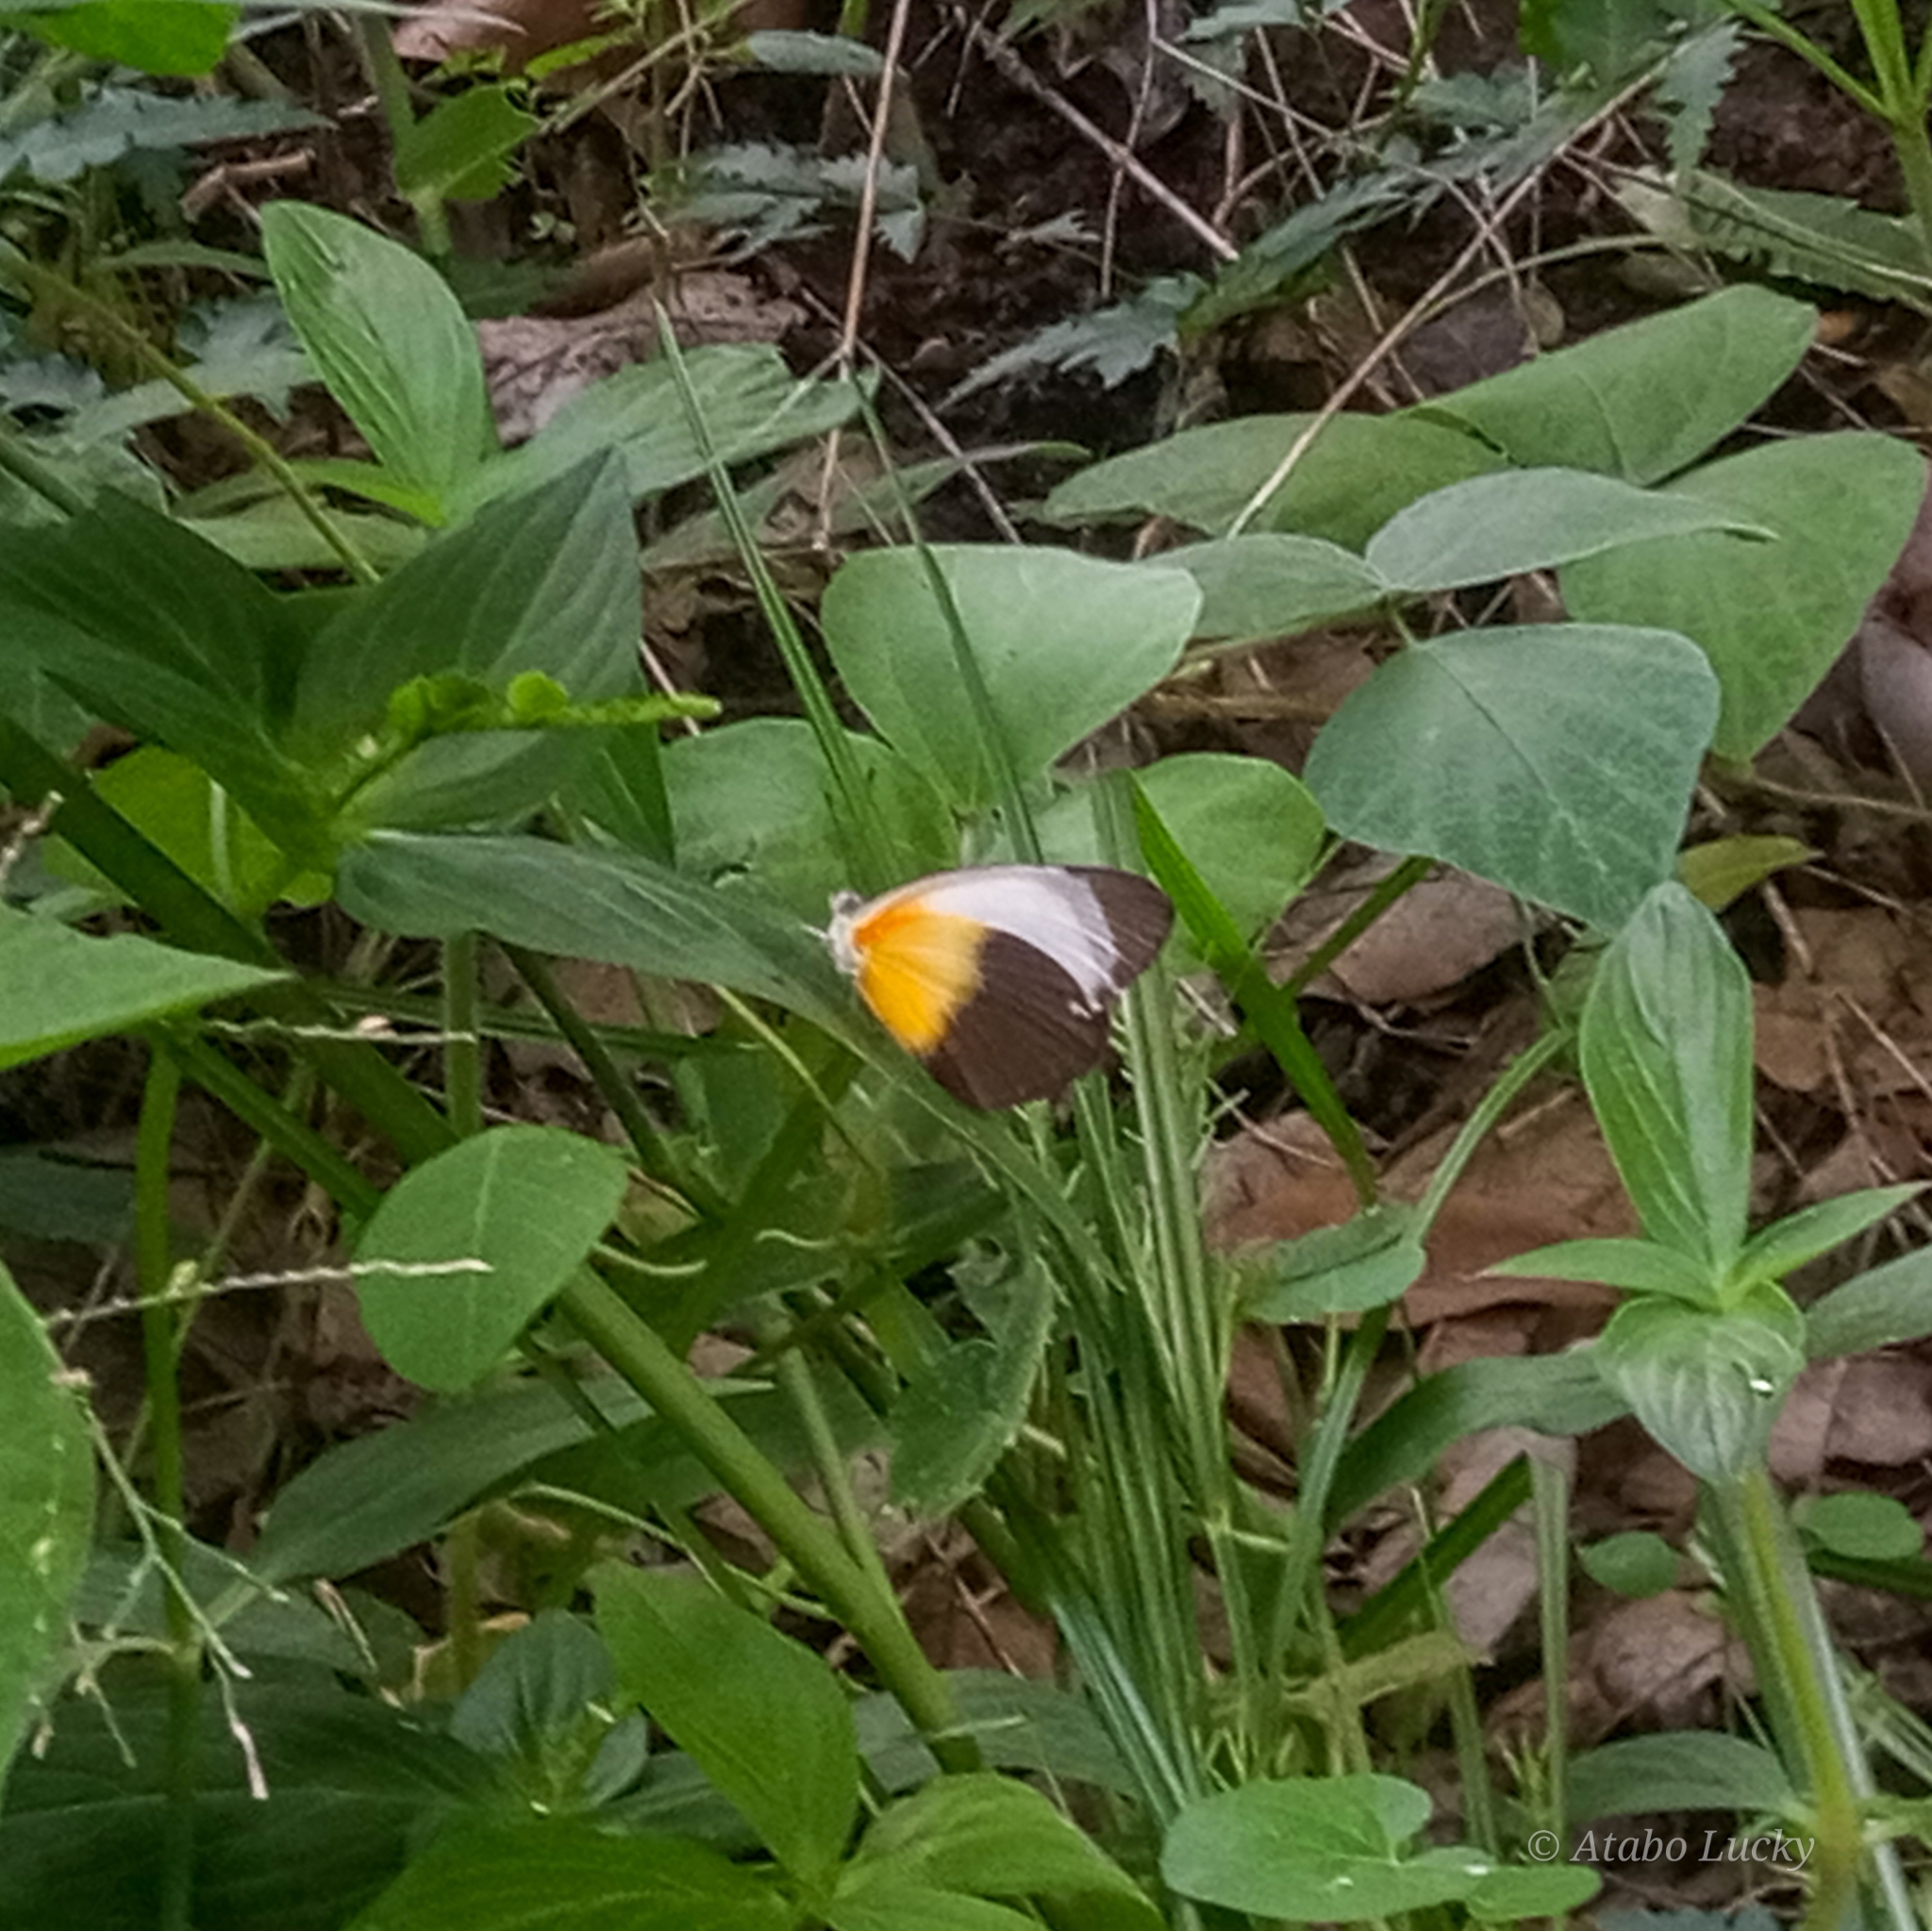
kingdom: Animalia
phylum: Arthropoda
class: Insecta
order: Lepidoptera
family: Pieridae
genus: Mylothris
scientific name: Mylothris chloris
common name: Western dotted border
